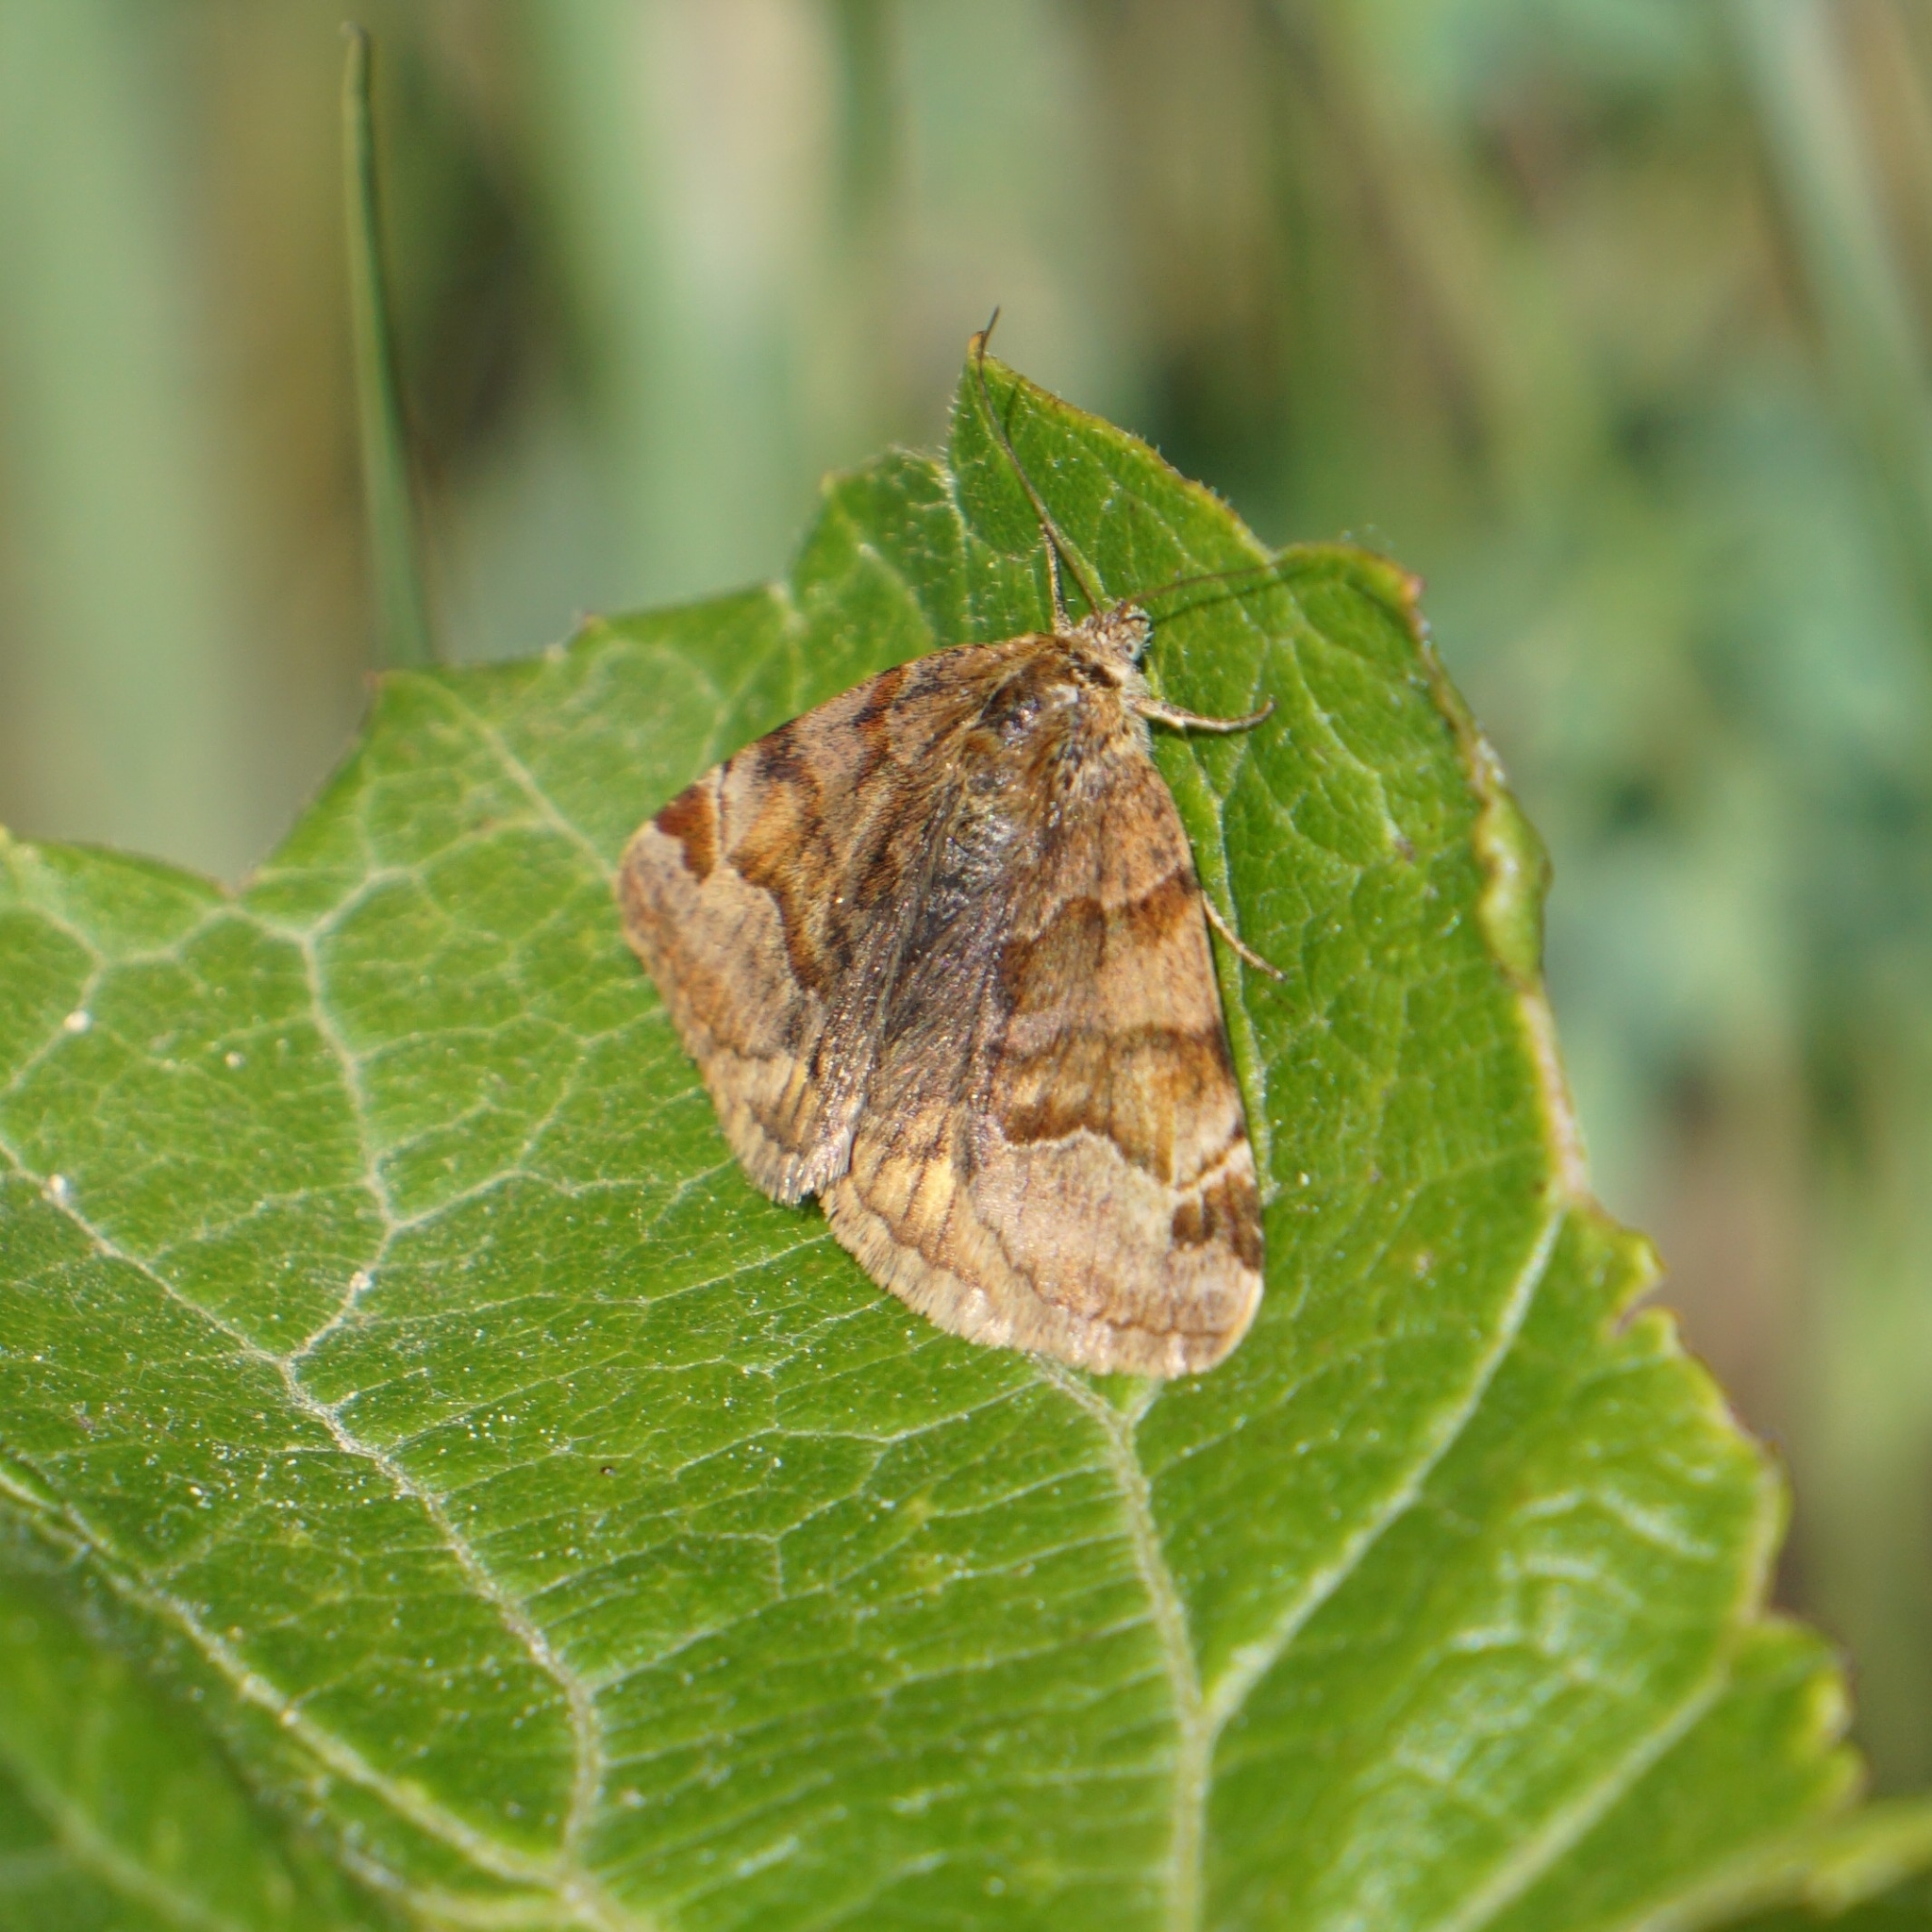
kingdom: Animalia
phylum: Arthropoda
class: Insecta
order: Lepidoptera
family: Erebidae
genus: Euclidia
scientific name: Euclidia glyphica
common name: Burnet companion
